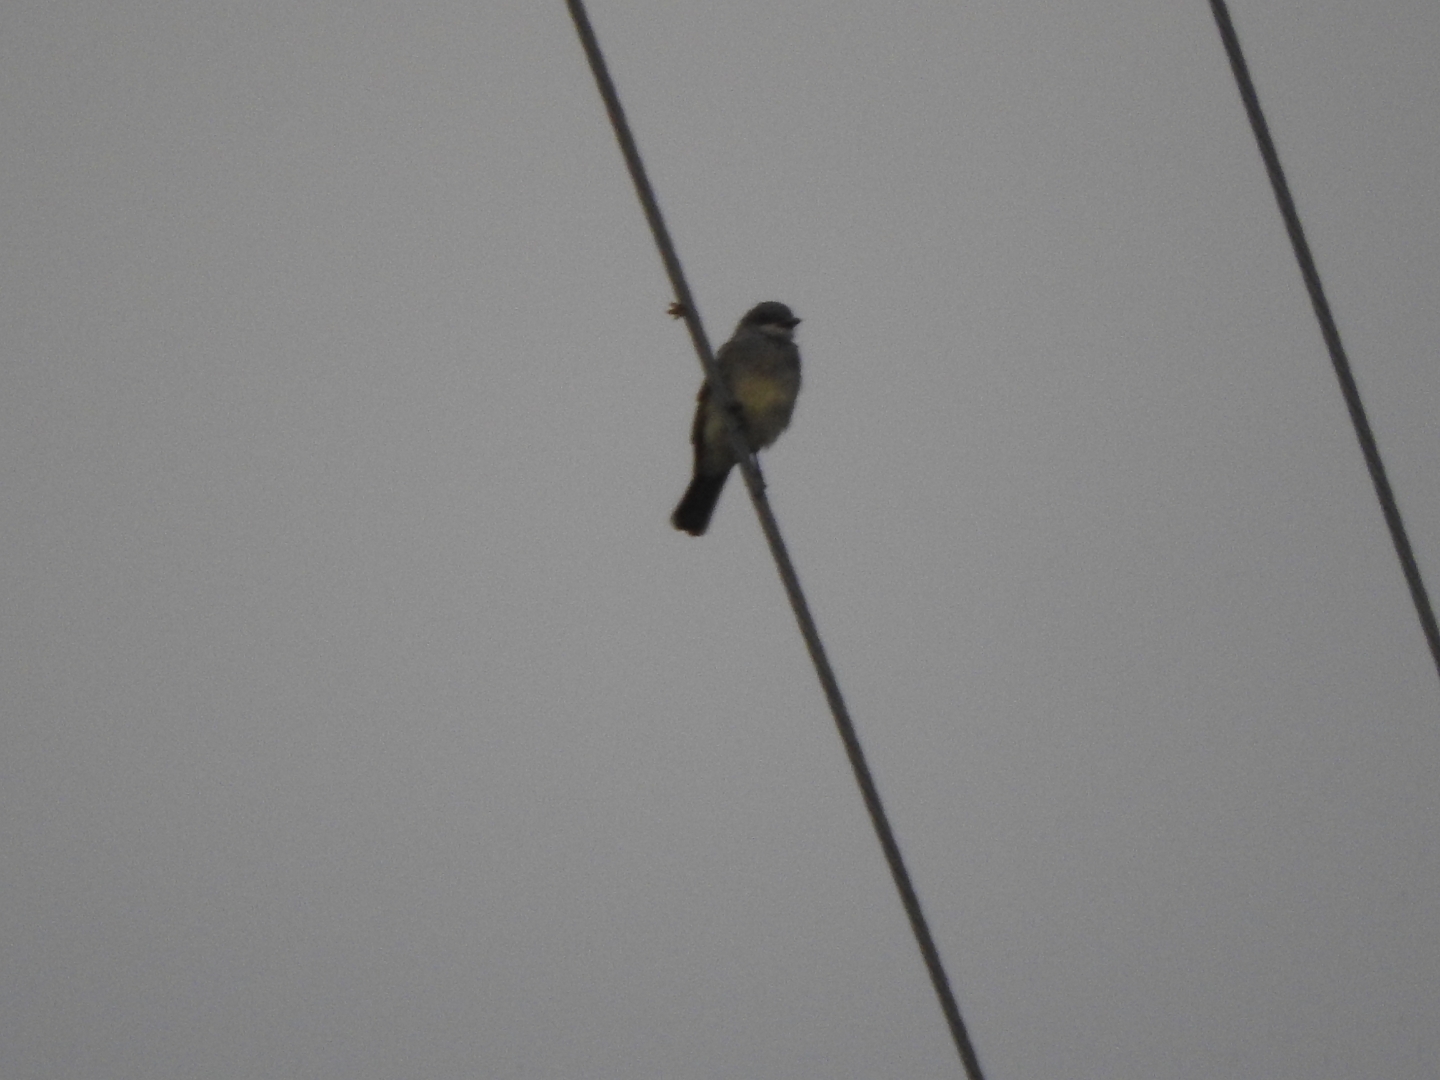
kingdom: Animalia
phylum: Chordata
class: Aves
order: Passeriformes
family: Tyrannidae
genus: Tyrannus
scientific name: Tyrannus vociferans
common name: Cassin's kingbird
